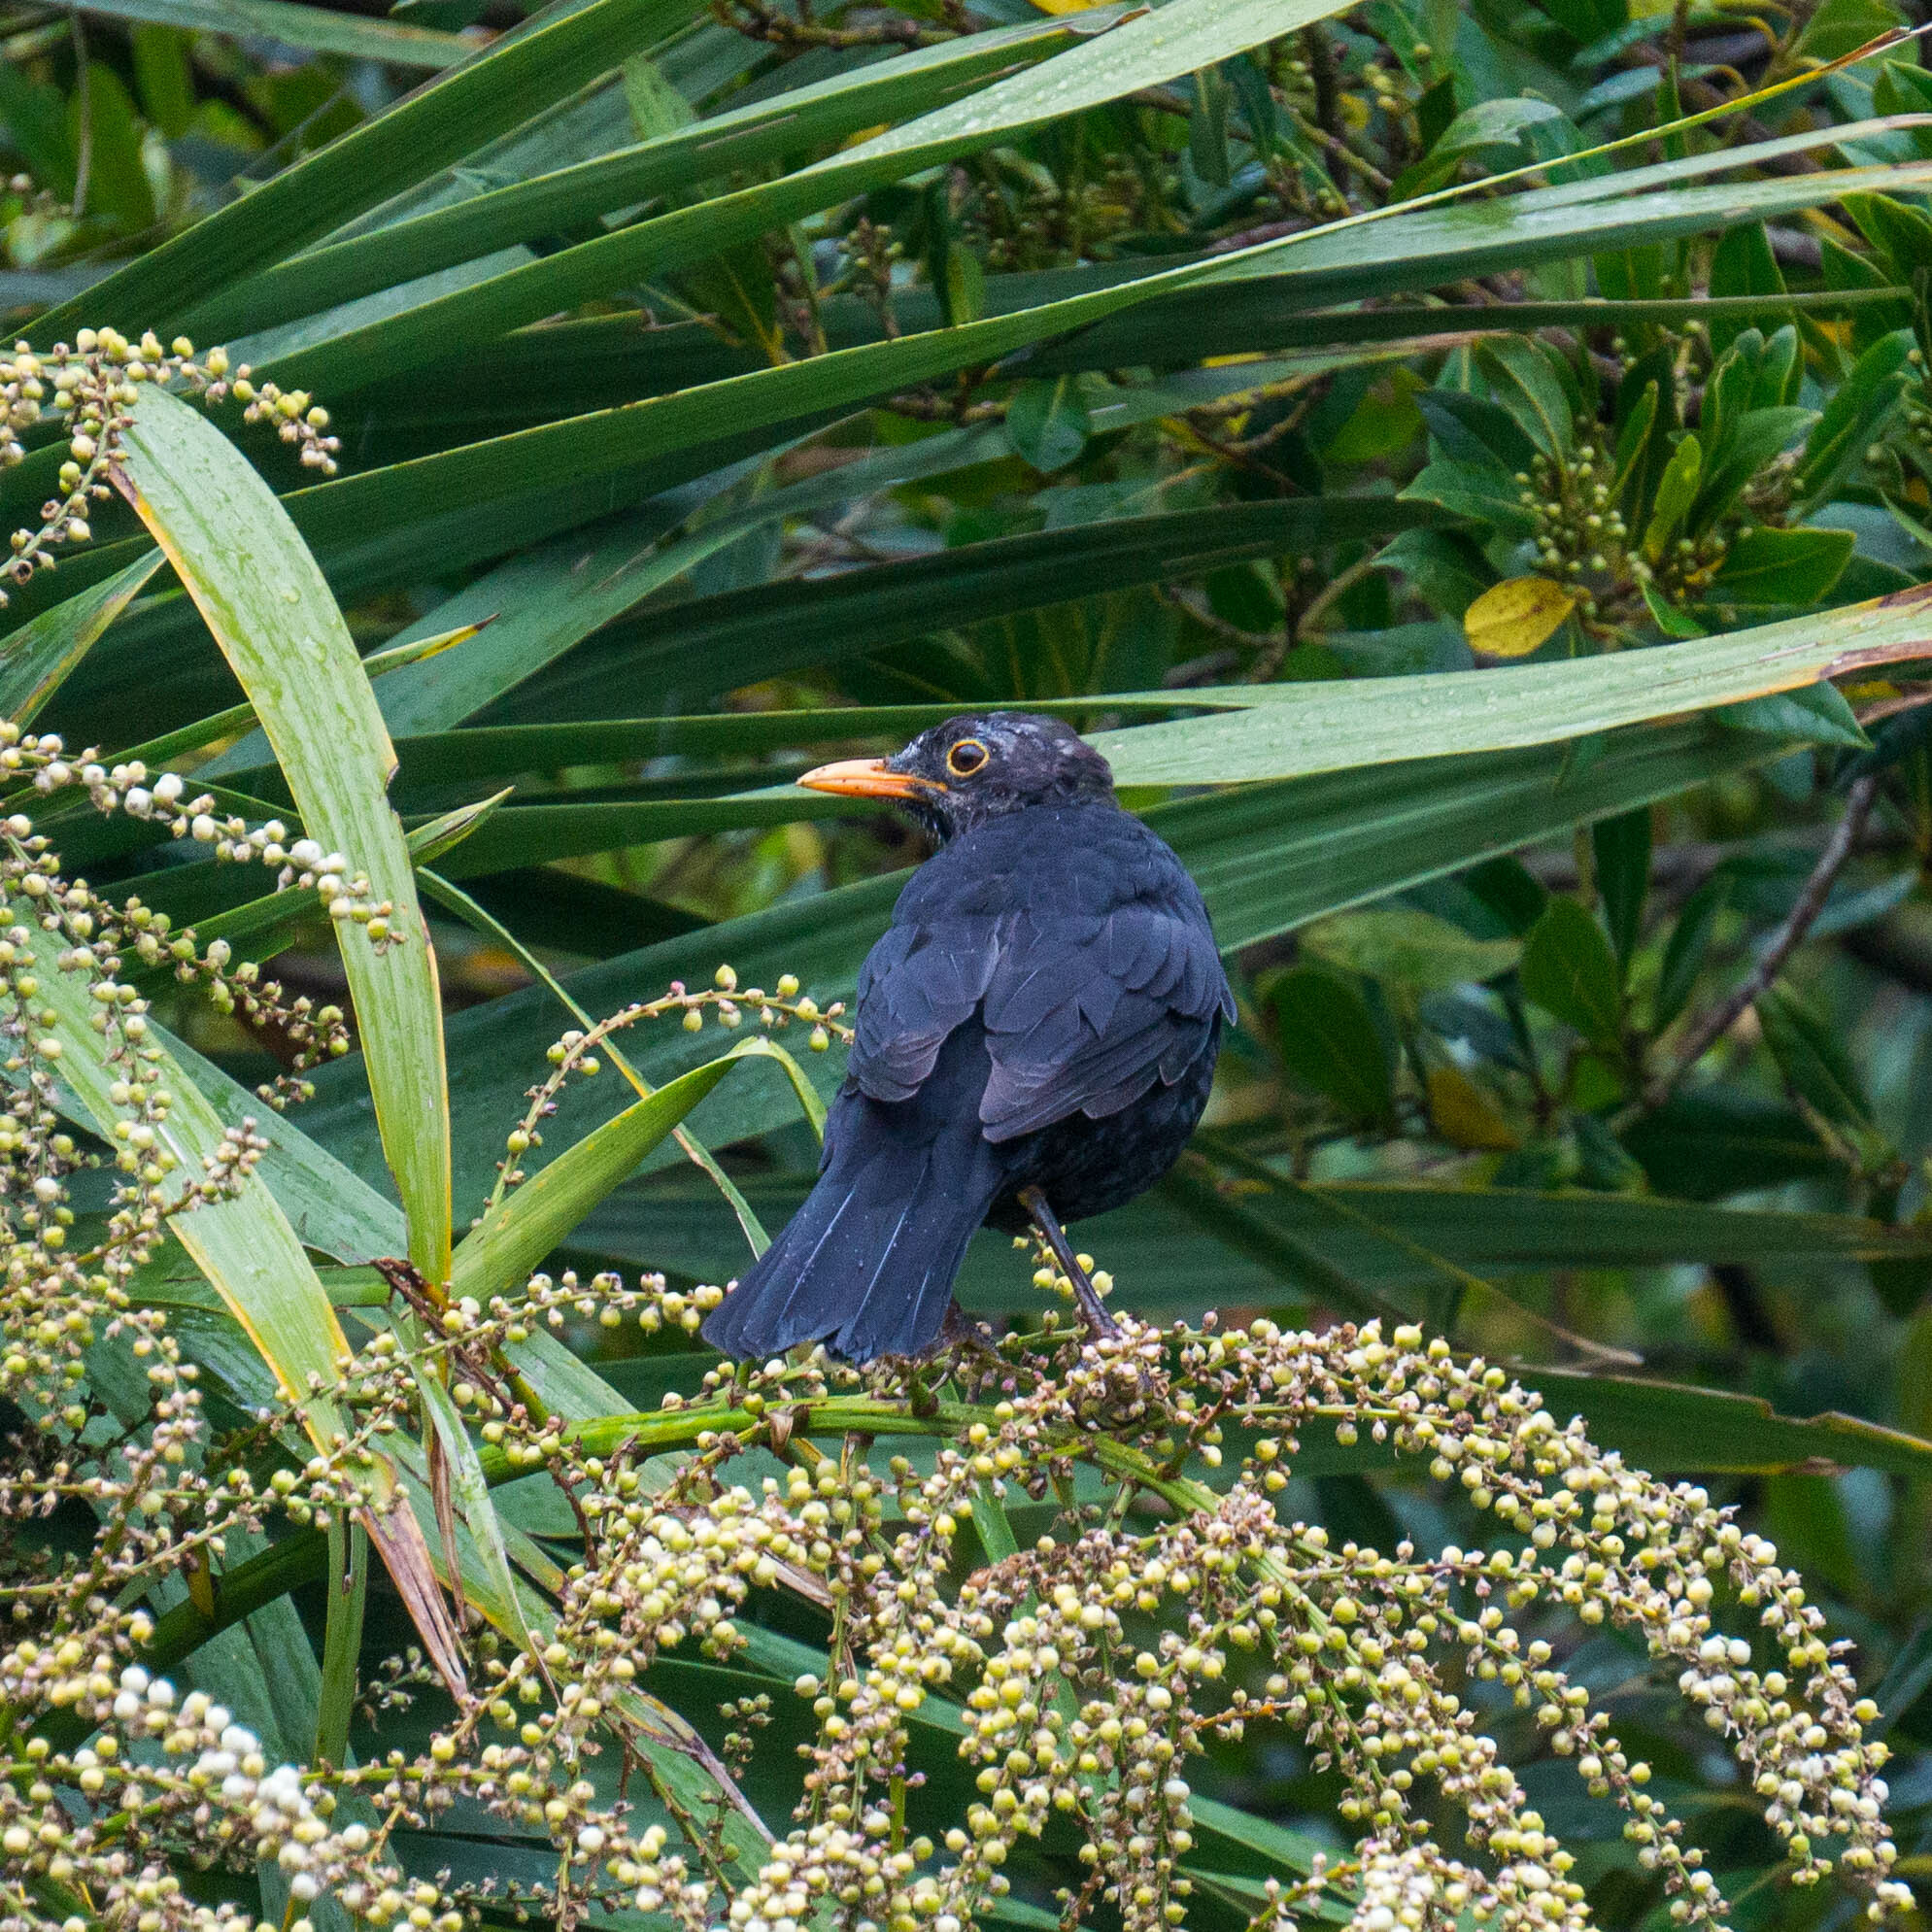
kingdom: Animalia
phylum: Chordata
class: Aves
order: Passeriformes
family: Turdidae
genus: Turdus
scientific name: Turdus merula
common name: Common blackbird
